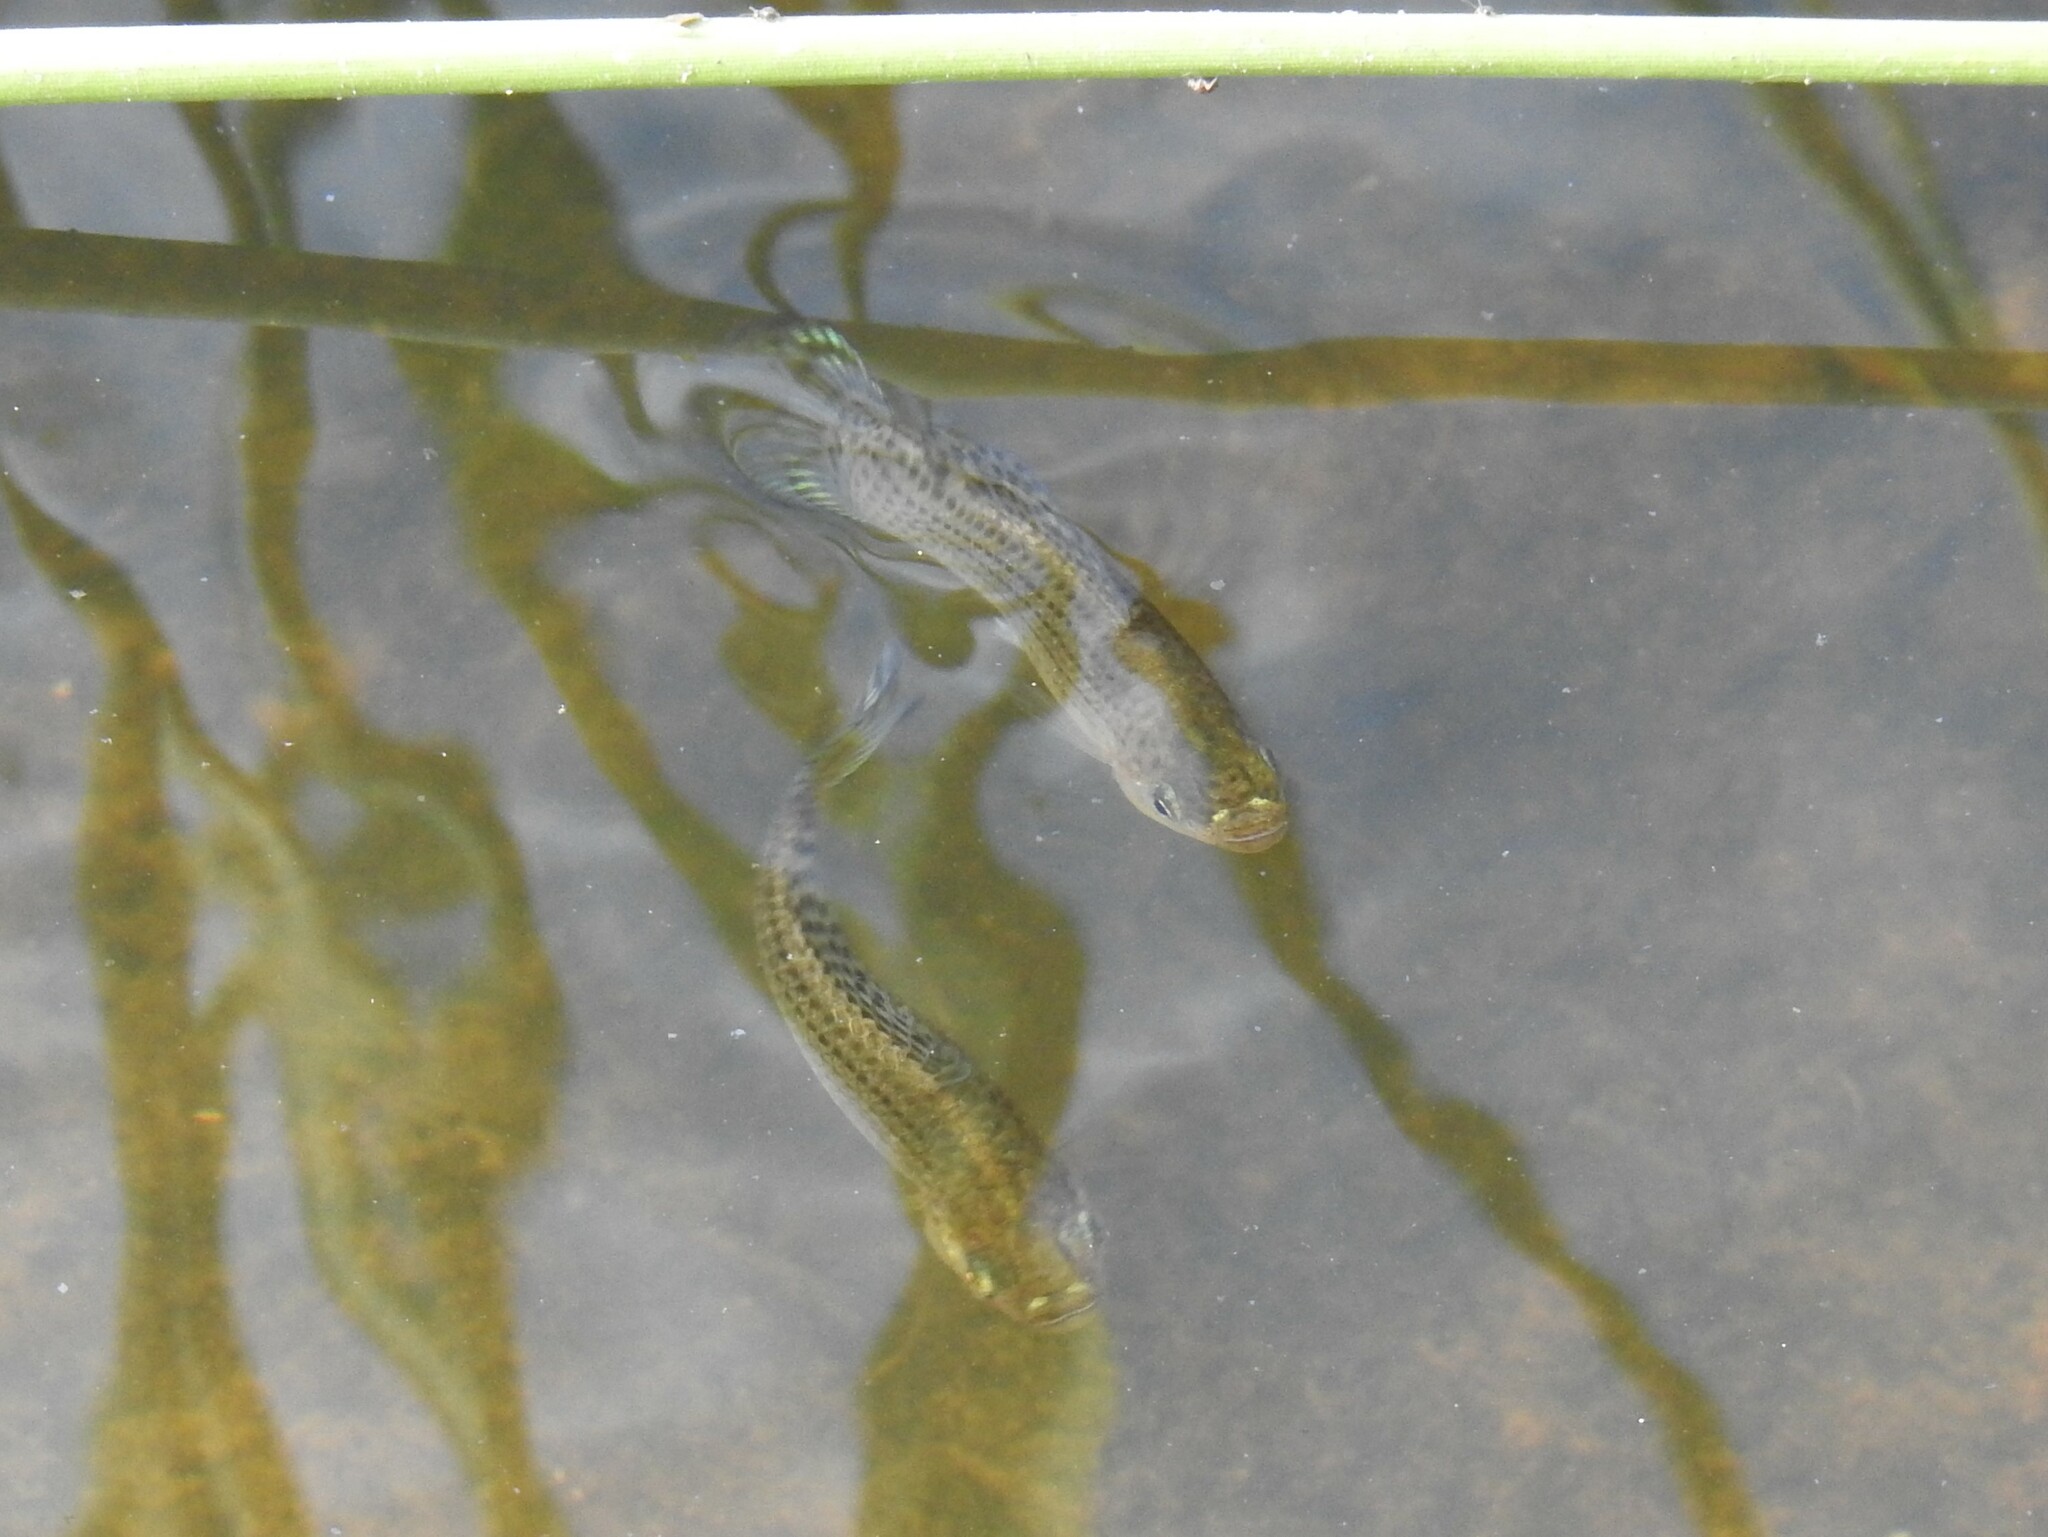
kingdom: Animalia
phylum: Chordata
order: Cyprinodontiformes
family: Poeciliidae
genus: Poecilia
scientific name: Poecilia latipinna
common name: Sailfin molly
